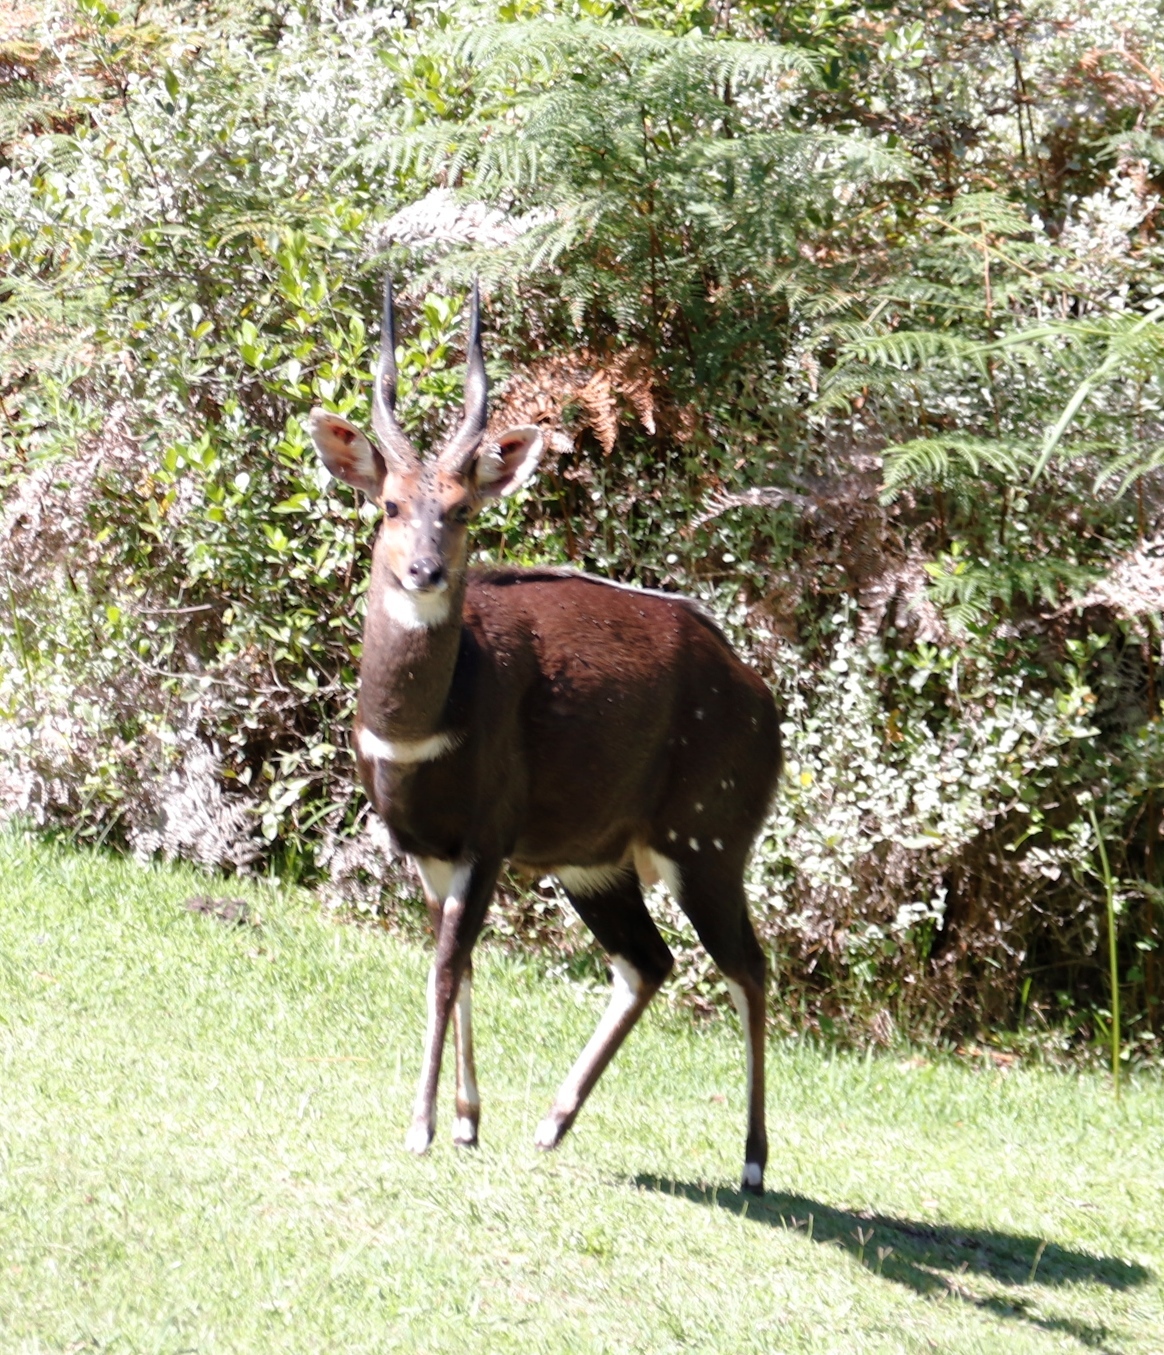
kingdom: Animalia
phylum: Chordata
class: Mammalia
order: Artiodactyla
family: Bovidae
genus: Tragelaphus
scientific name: Tragelaphus scriptus
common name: Bushbuck
